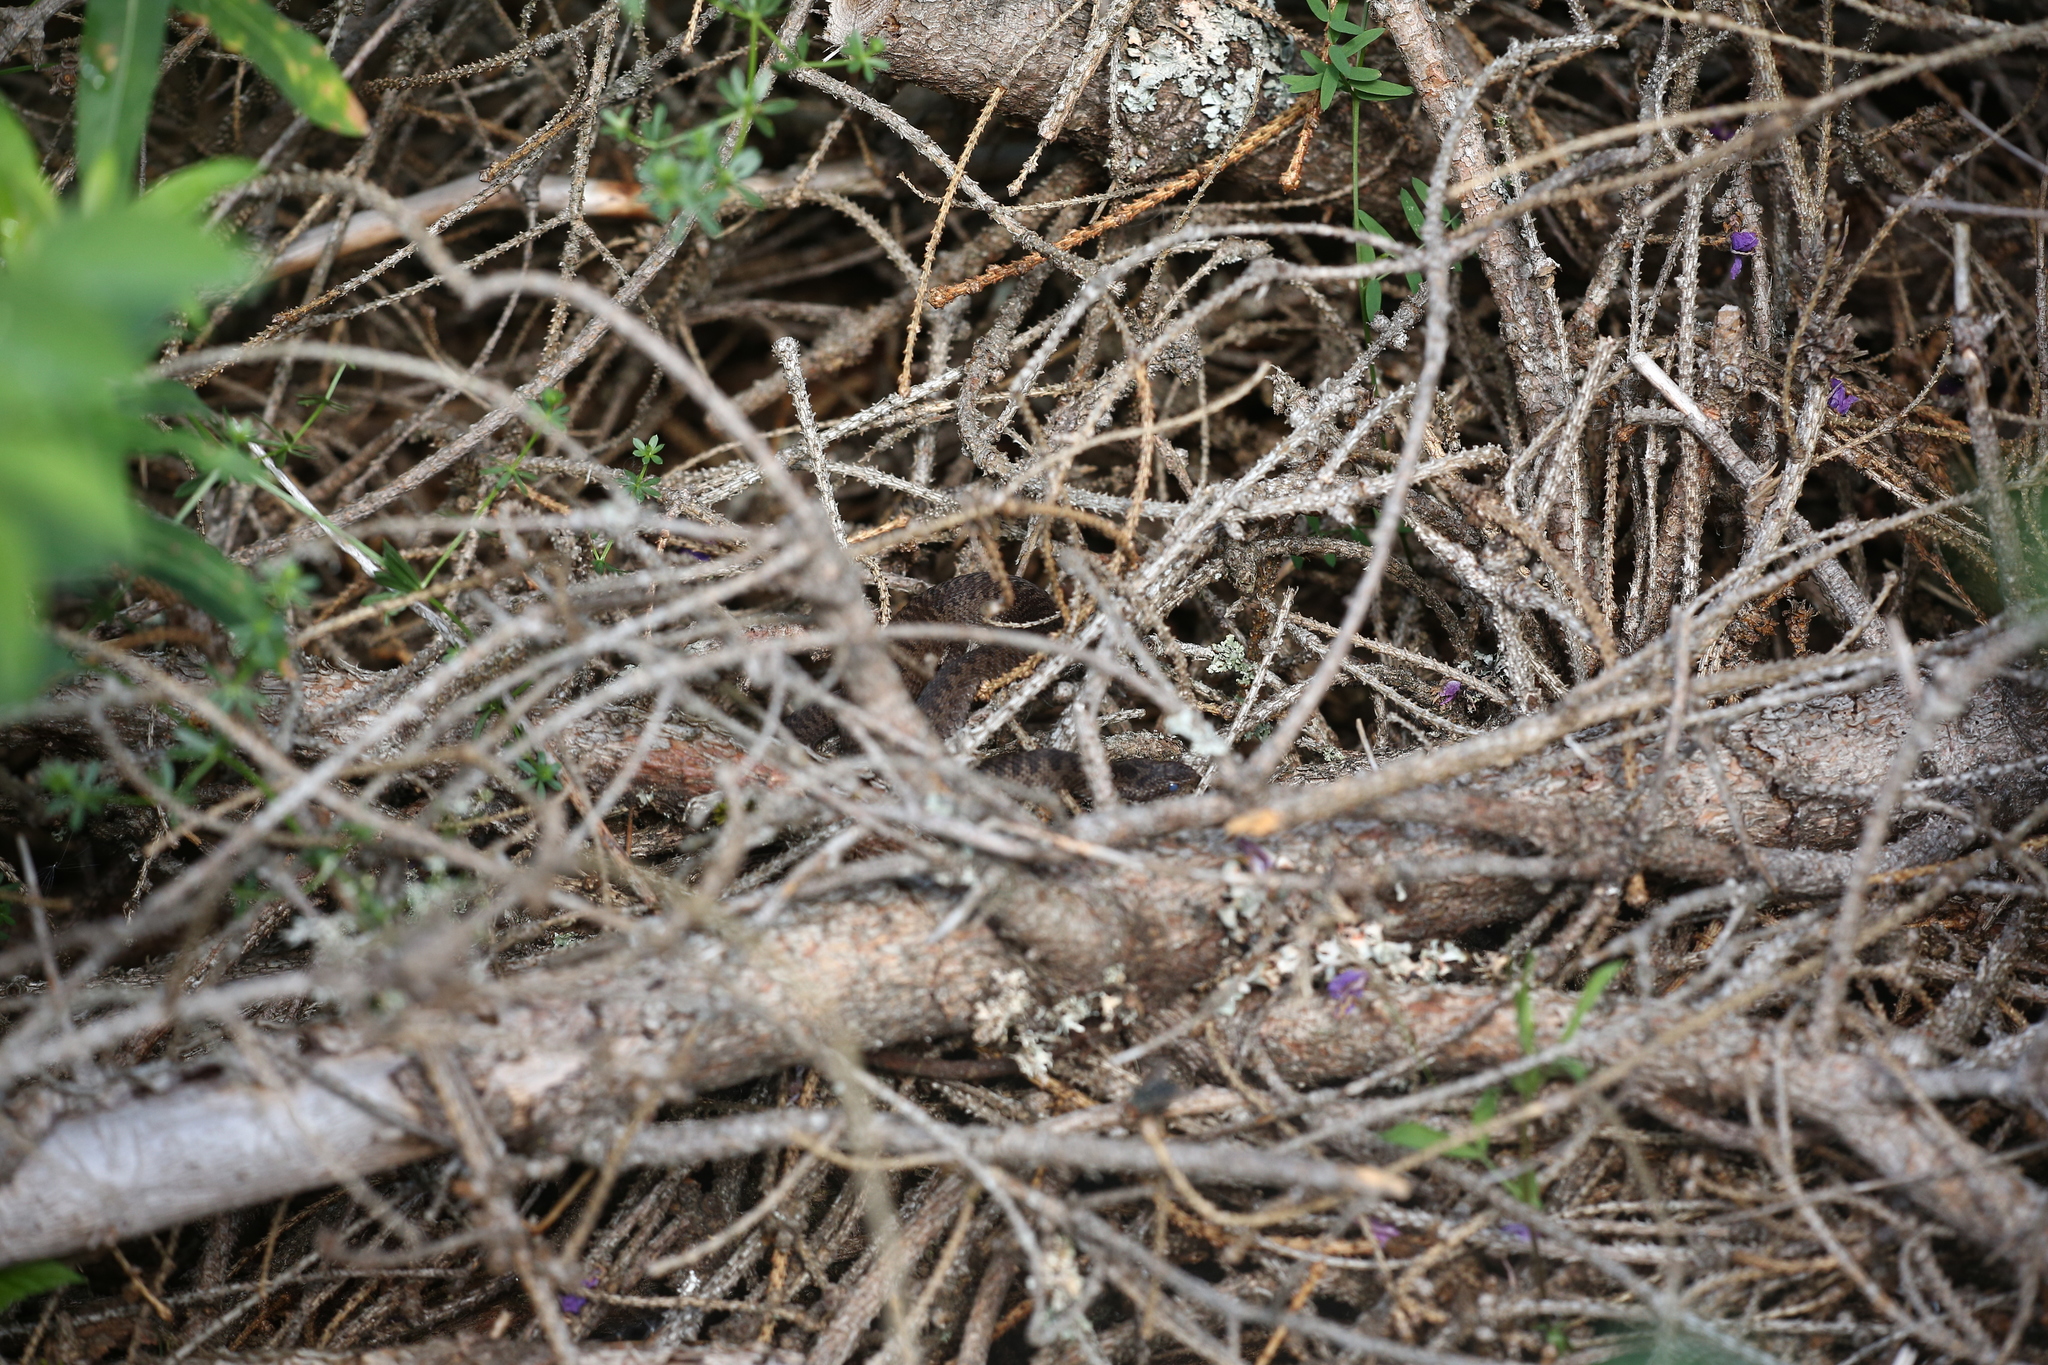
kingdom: Animalia
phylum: Chordata
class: Squamata
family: Viperidae
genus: Vipera
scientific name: Vipera berus
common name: Adder
